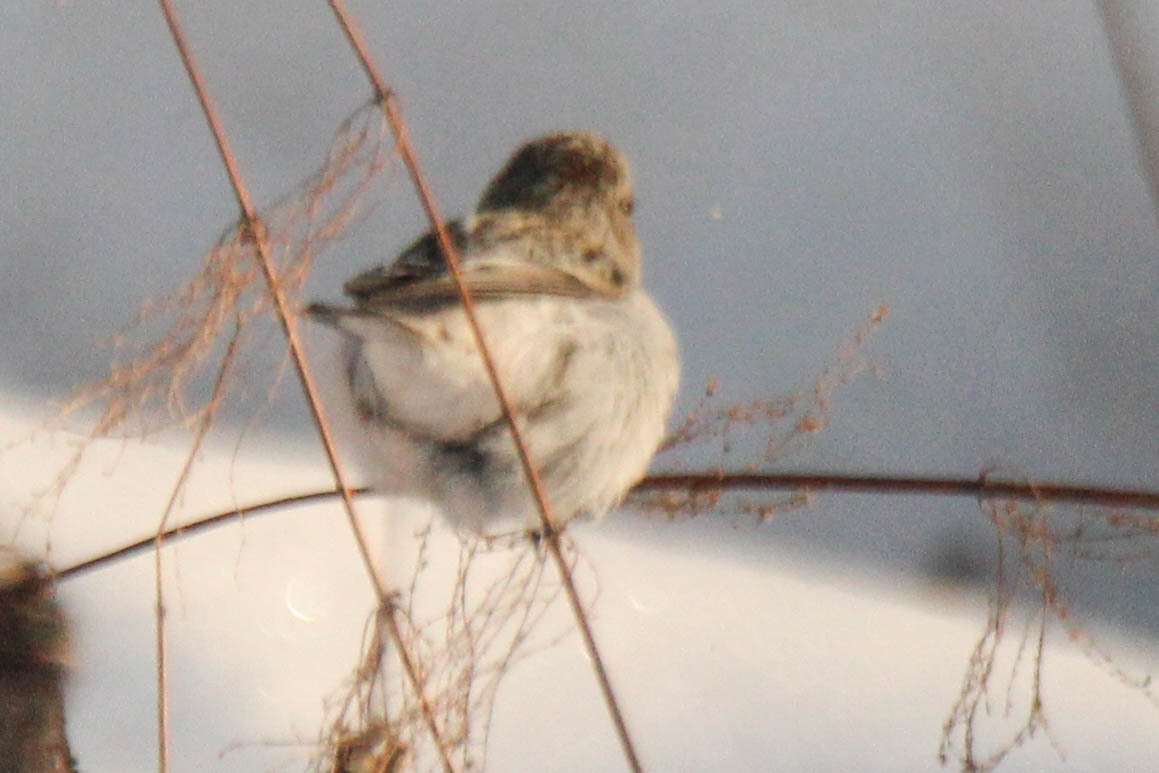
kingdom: Animalia
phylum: Chordata
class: Aves
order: Passeriformes
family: Fringillidae
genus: Acanthis
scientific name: Acanthis hornemanni
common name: Arctic redpoll
